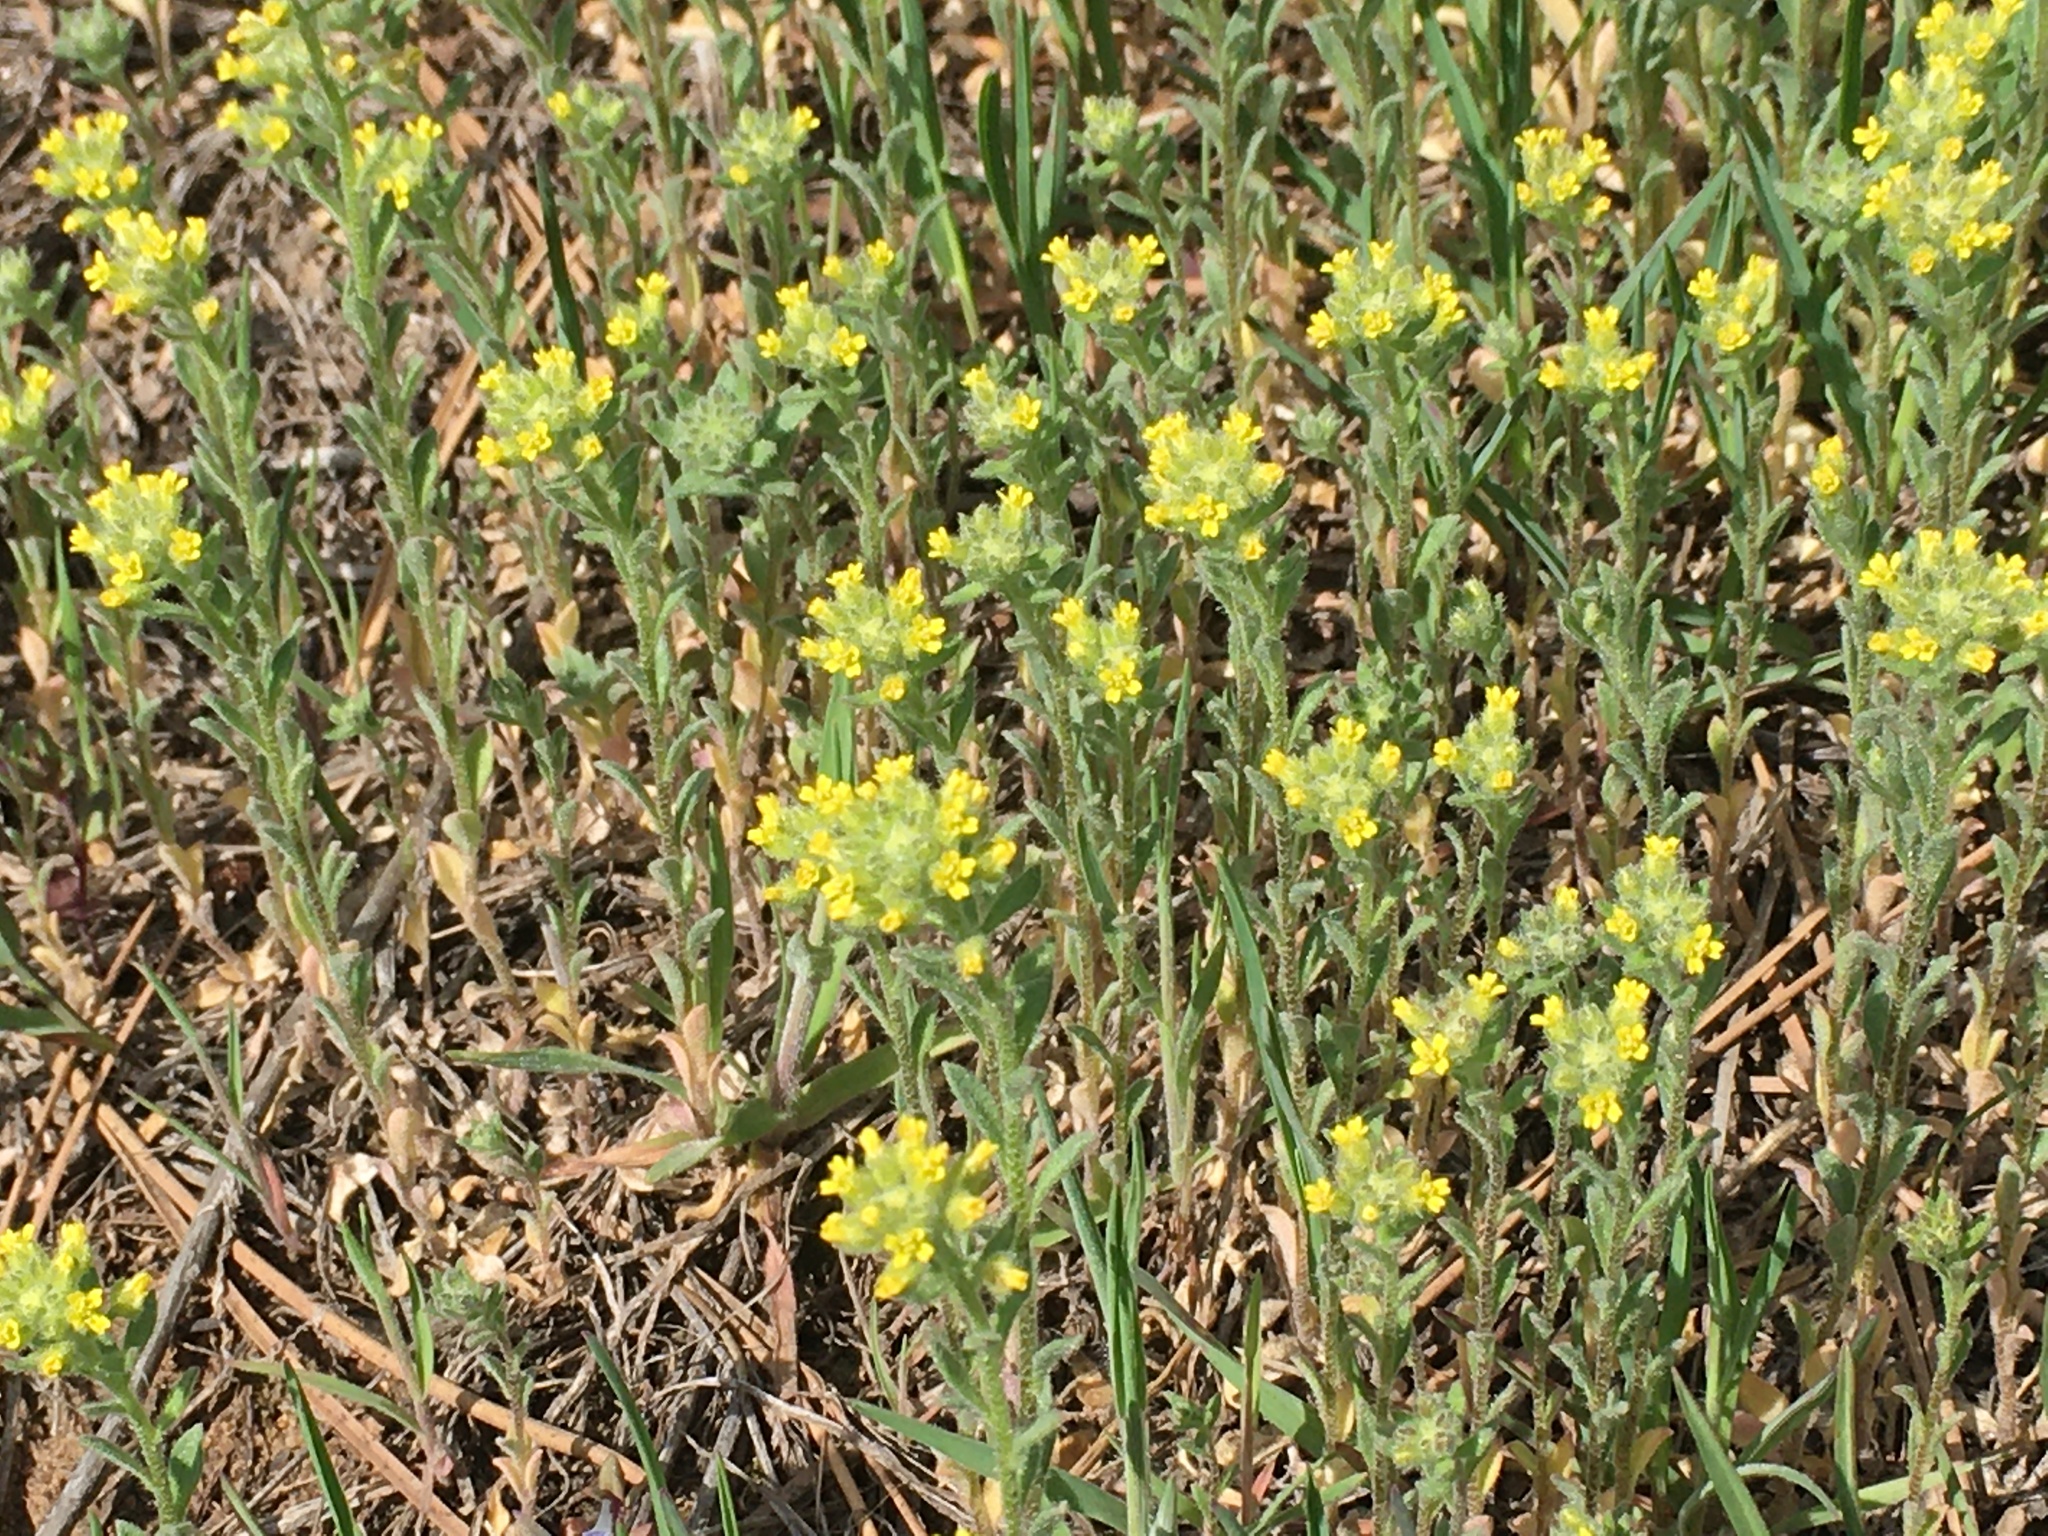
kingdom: Plantae
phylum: Tracheophyta
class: Magnoliopsida
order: Brassicales
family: Brassicaceae
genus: Alyssum
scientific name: Alyssum simplex
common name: Alyssum
